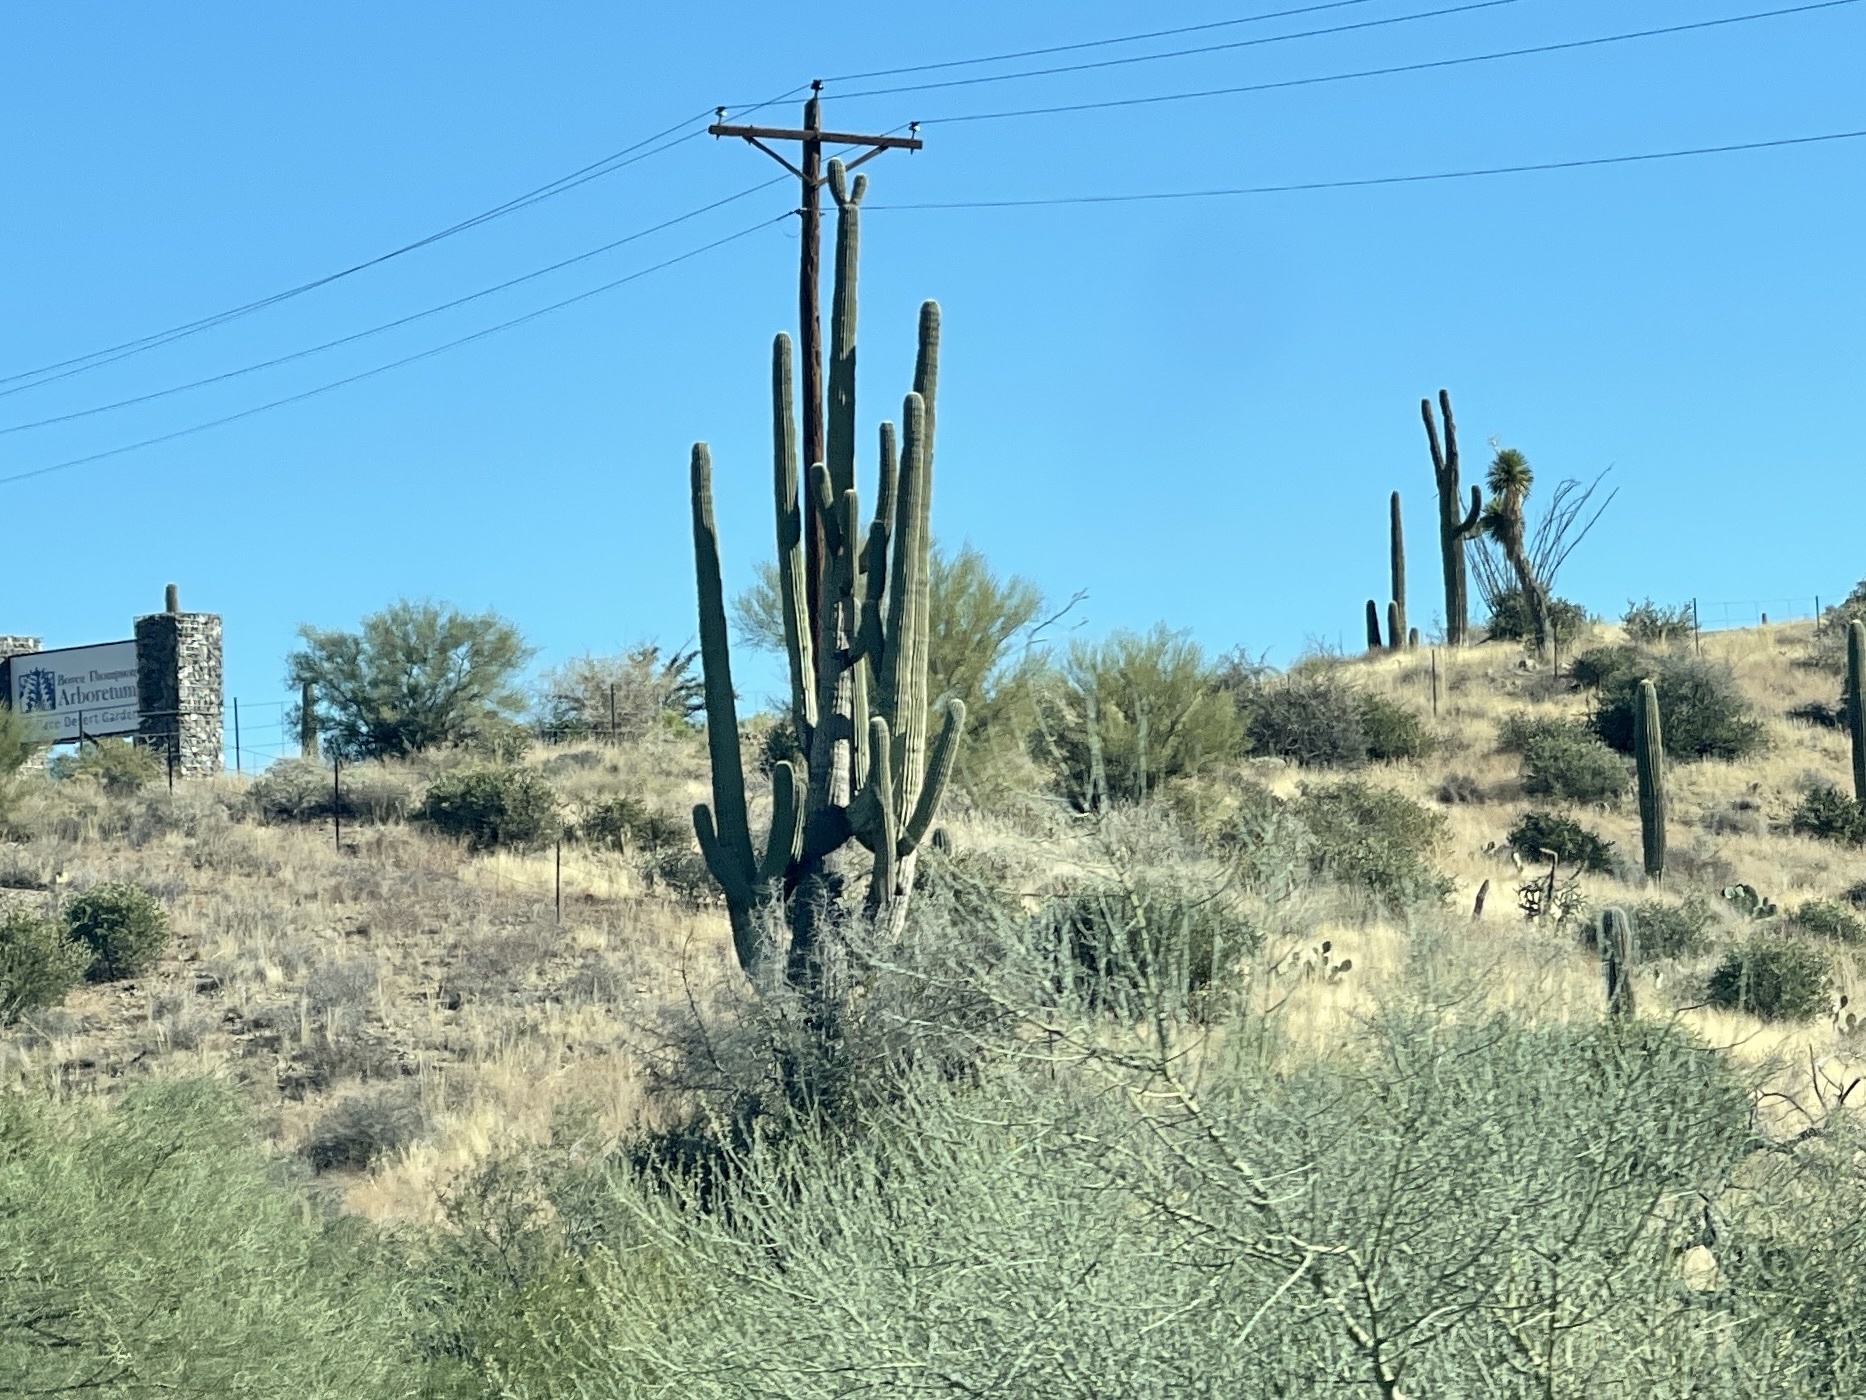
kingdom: Plantae
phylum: Tracheophyta
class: Magnoliopsida
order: Caryophyllales
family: Cactaceae
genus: Carnegiea
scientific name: Carnegiea gigantea
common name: Saguaro
